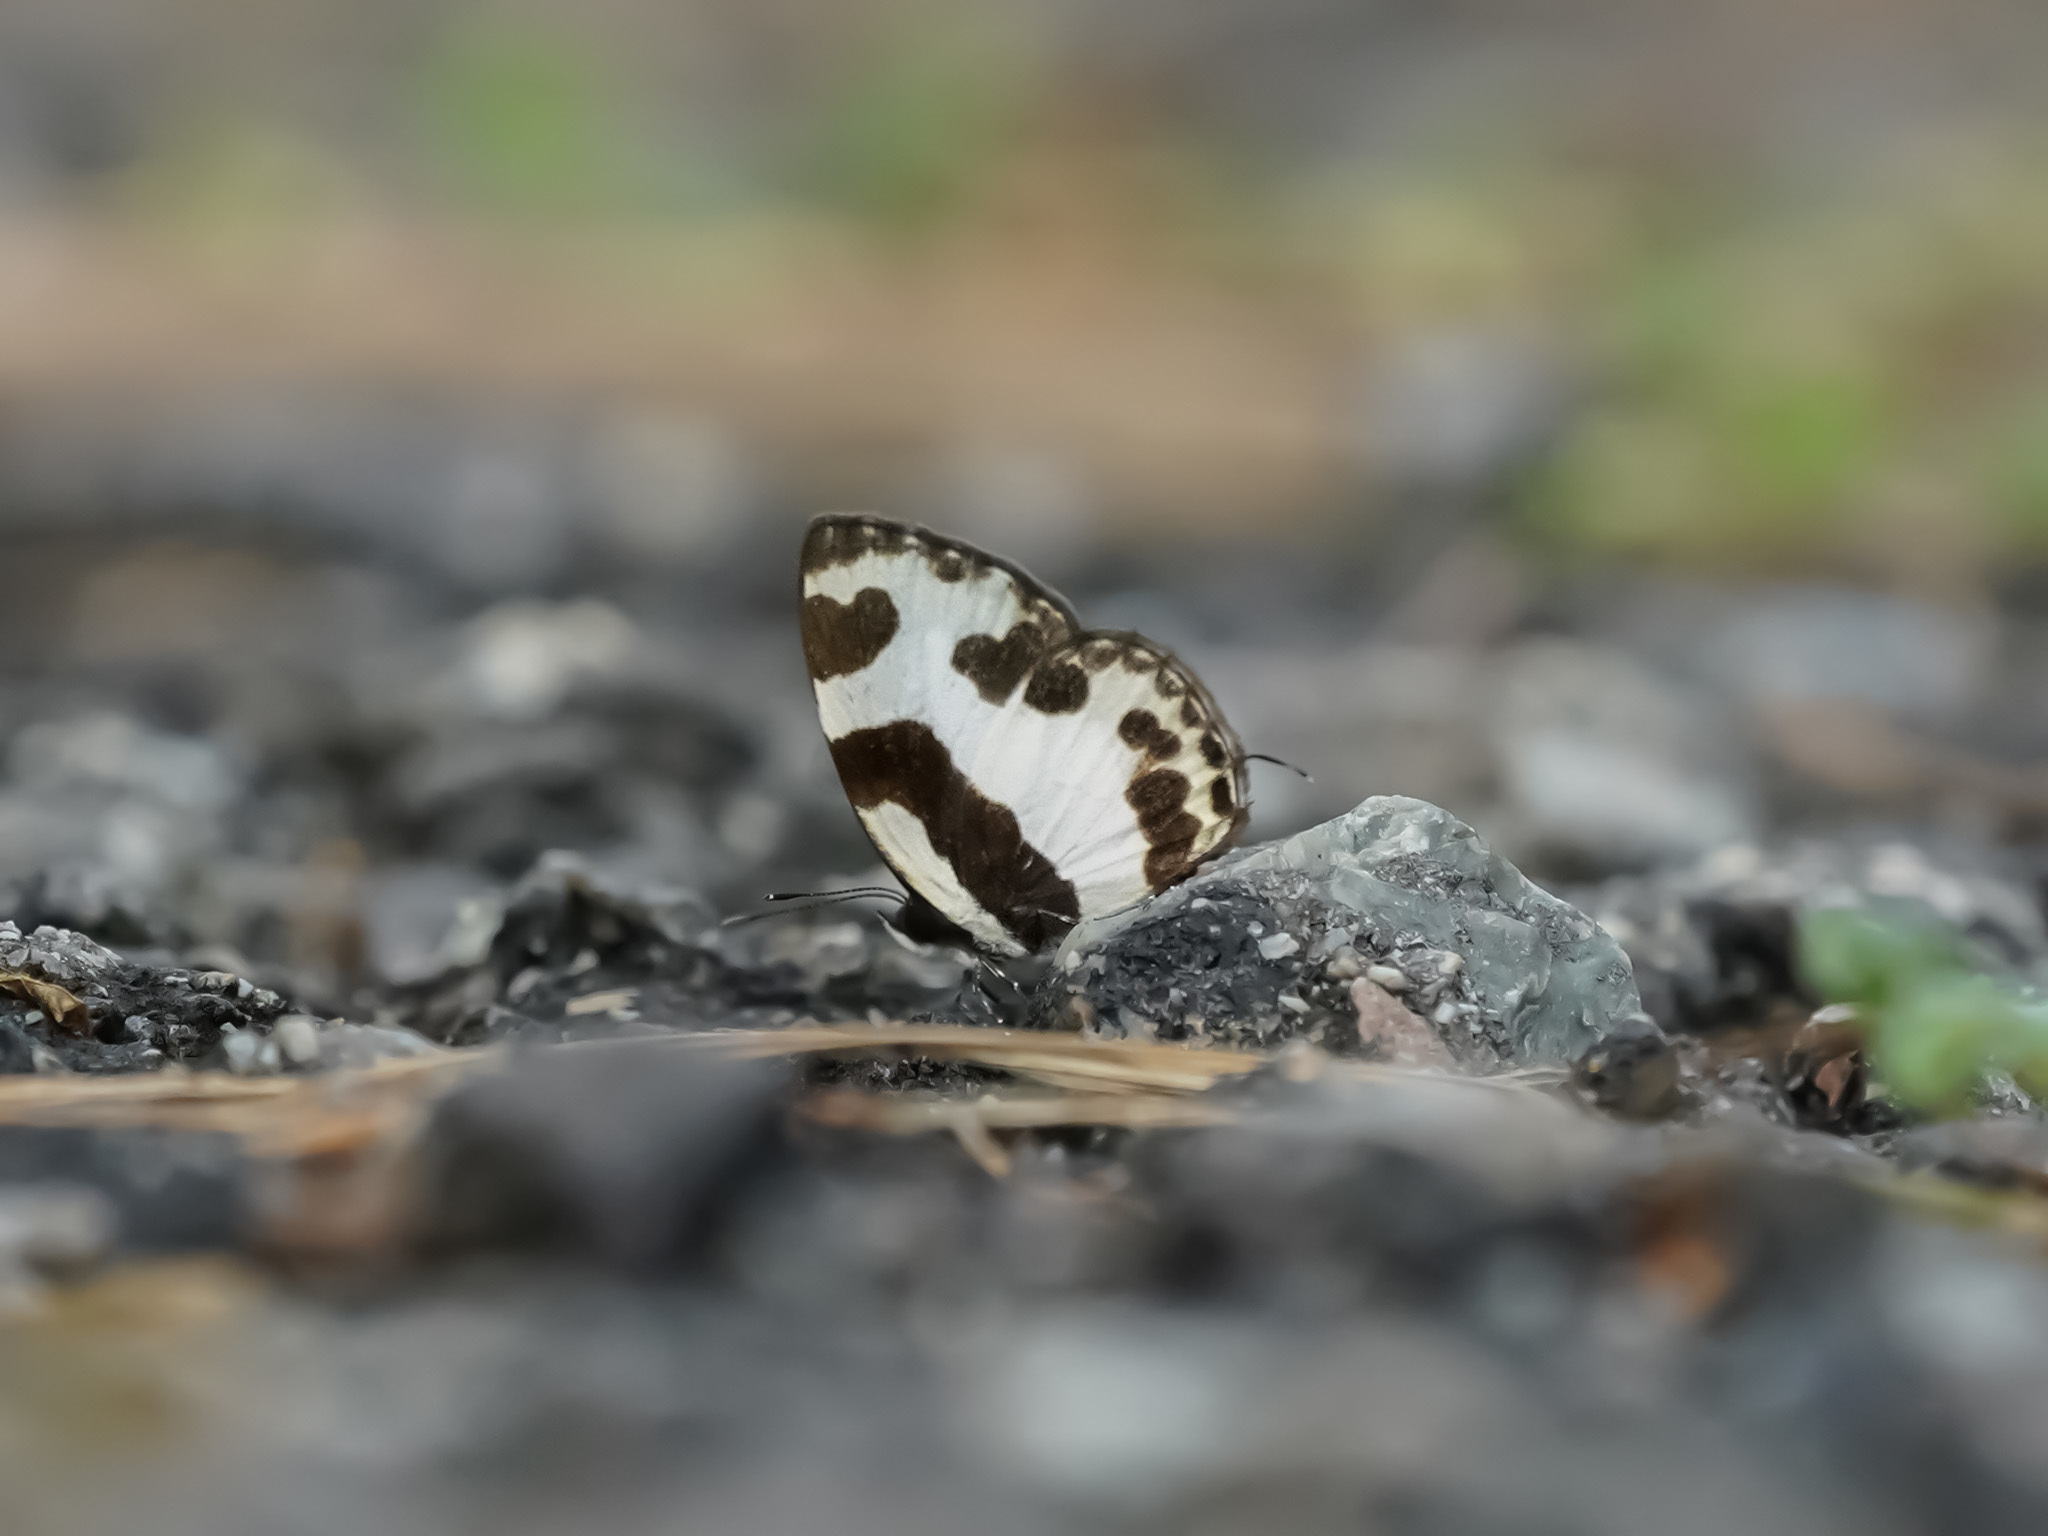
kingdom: Animalia
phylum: Arthropoda
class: Insecta
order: Lepidoptera
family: Lycaenidae
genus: Caleta
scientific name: Caleta elna
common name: Elbowed pierrot
